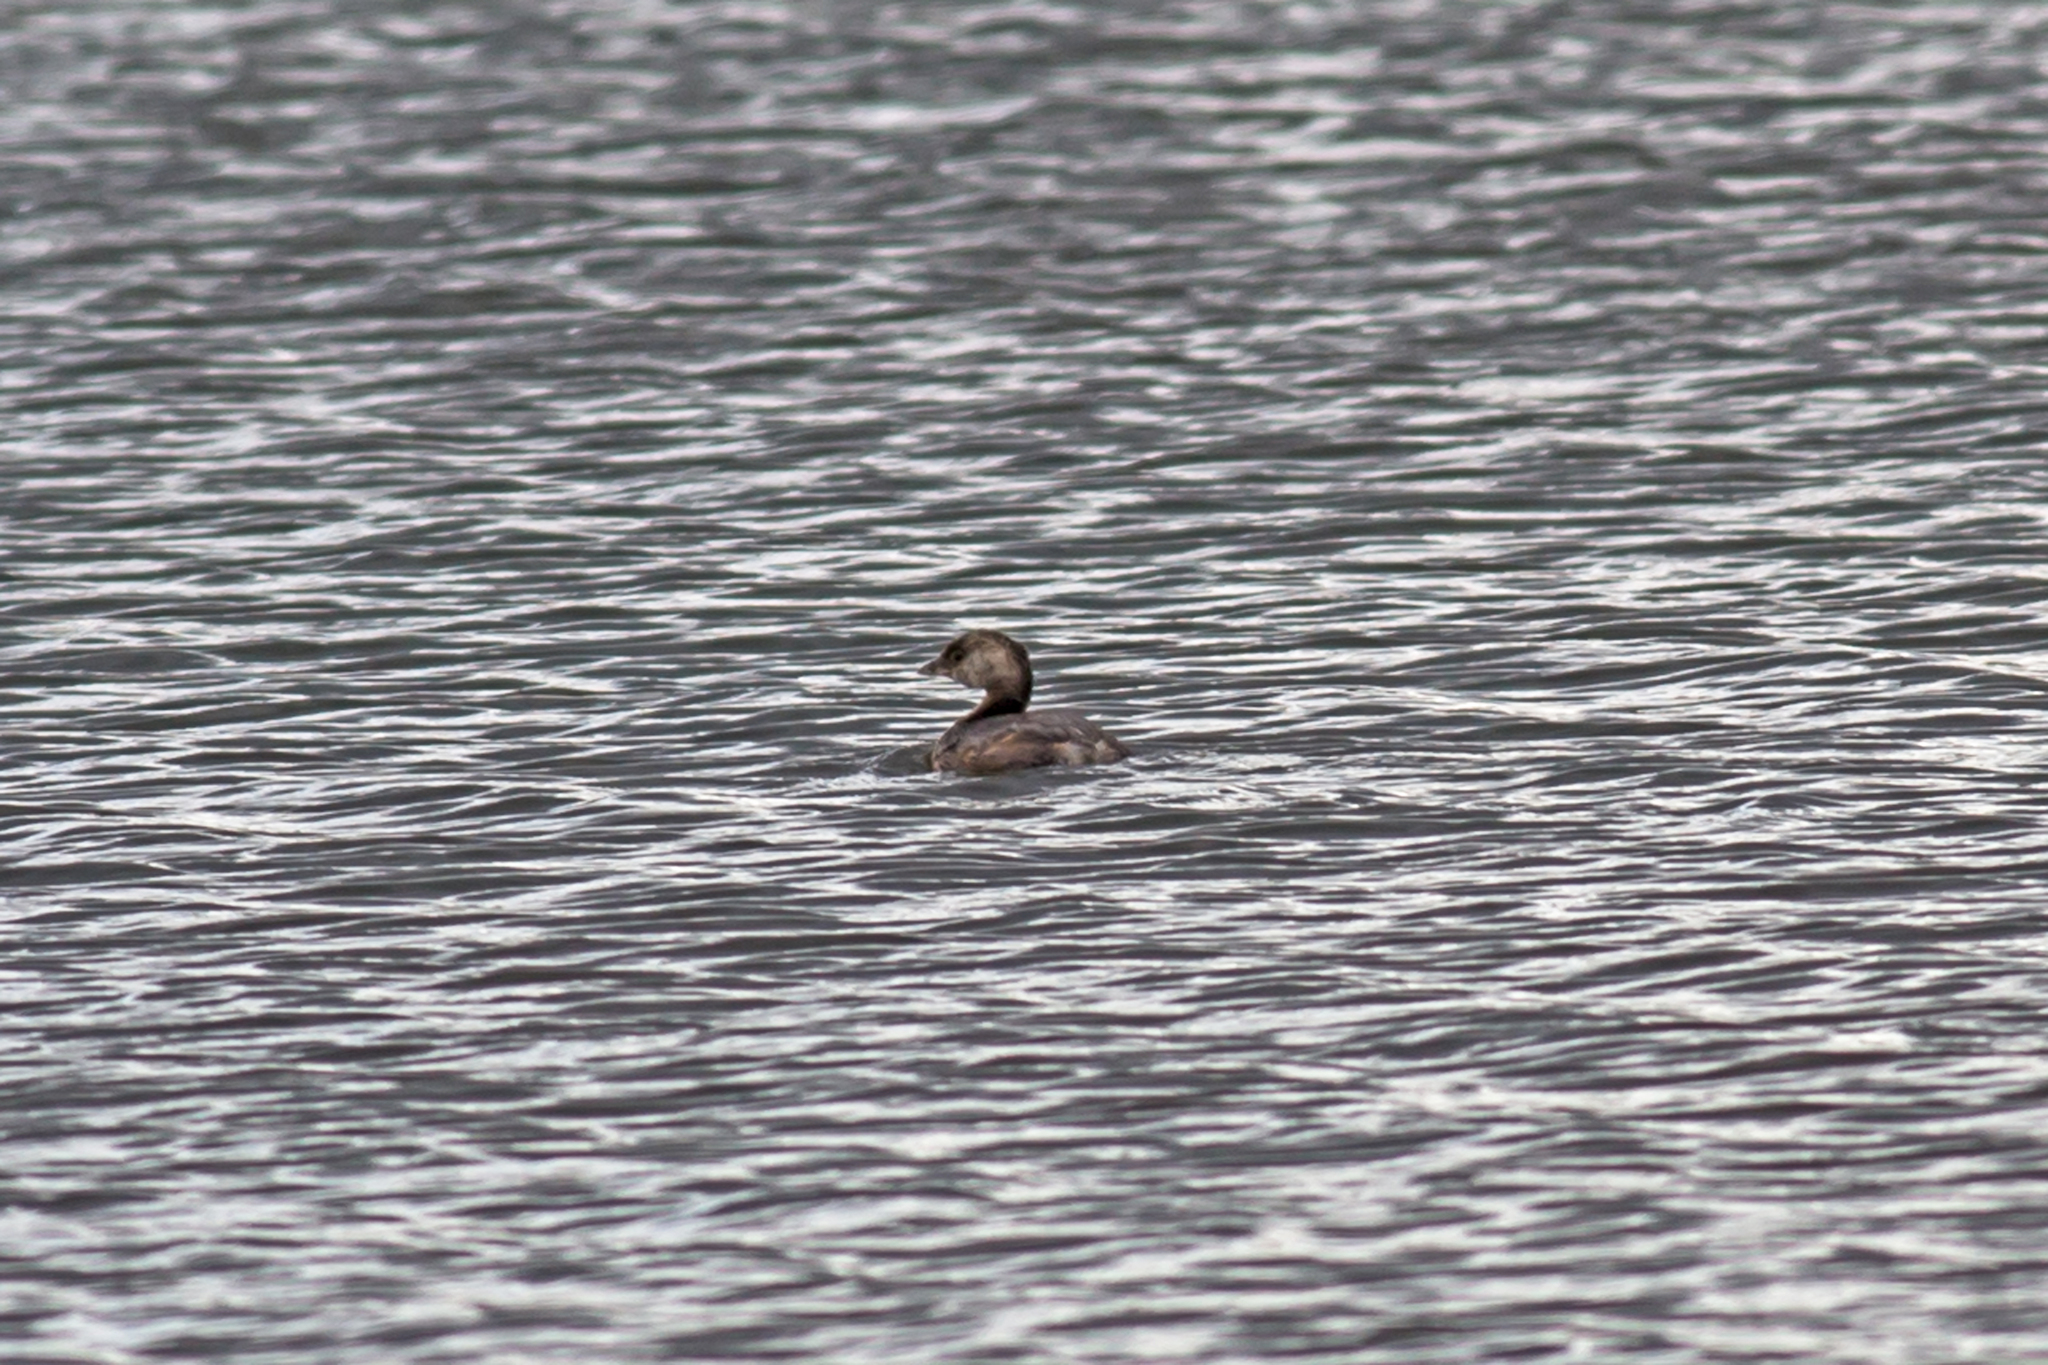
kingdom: Animalia
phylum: Chordata
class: Aves
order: Podicipediformes
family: Podicipedidae
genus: Podilymbus
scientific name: Podilymbus podiceps
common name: Pied-billed grebe
